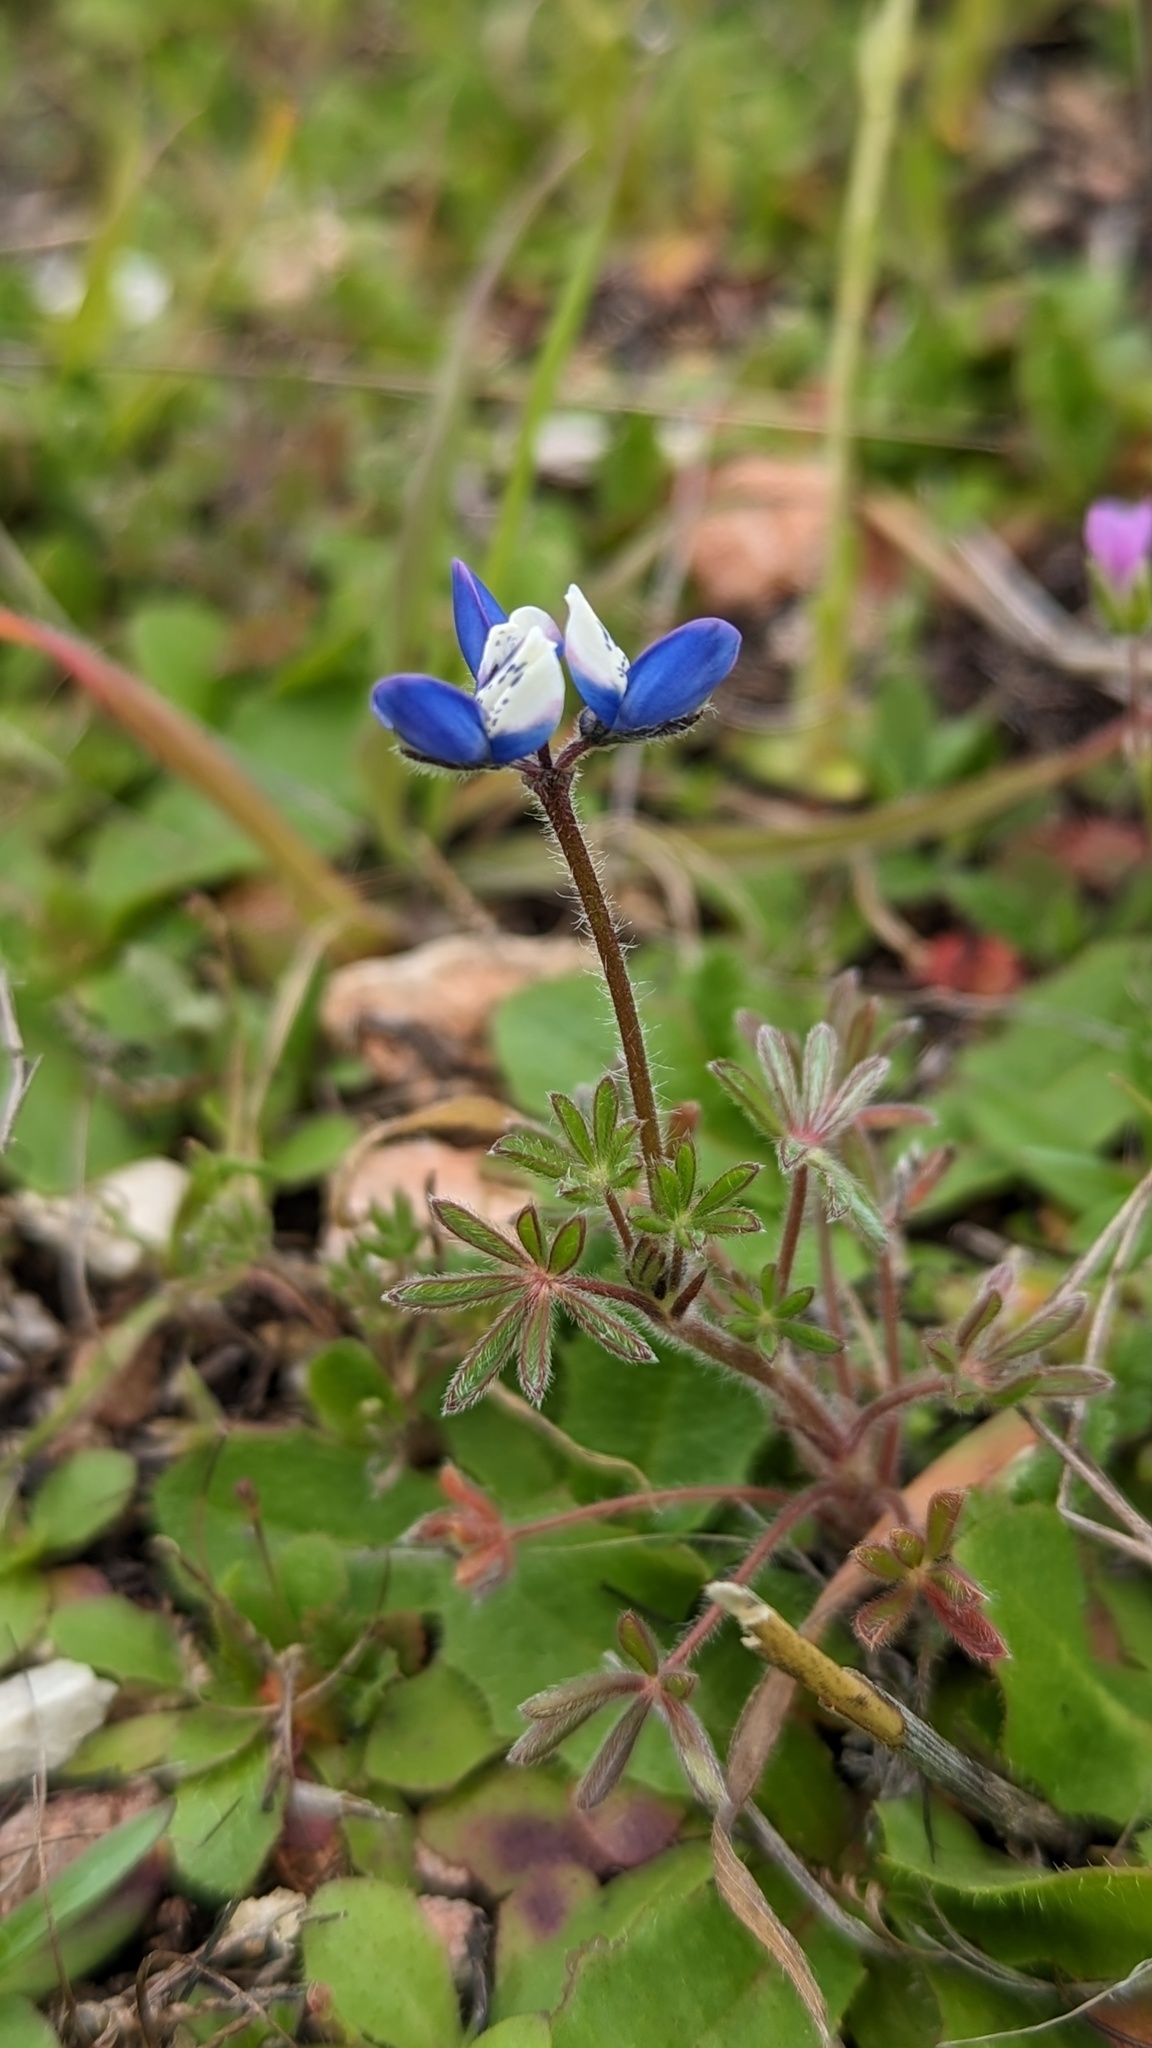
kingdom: Plantae
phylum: Tracheophyta
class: Magnoliopsida
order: Fabales
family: Fabaceae
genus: Lupinus
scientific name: Lupinus bicolor
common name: Miniature lupine
